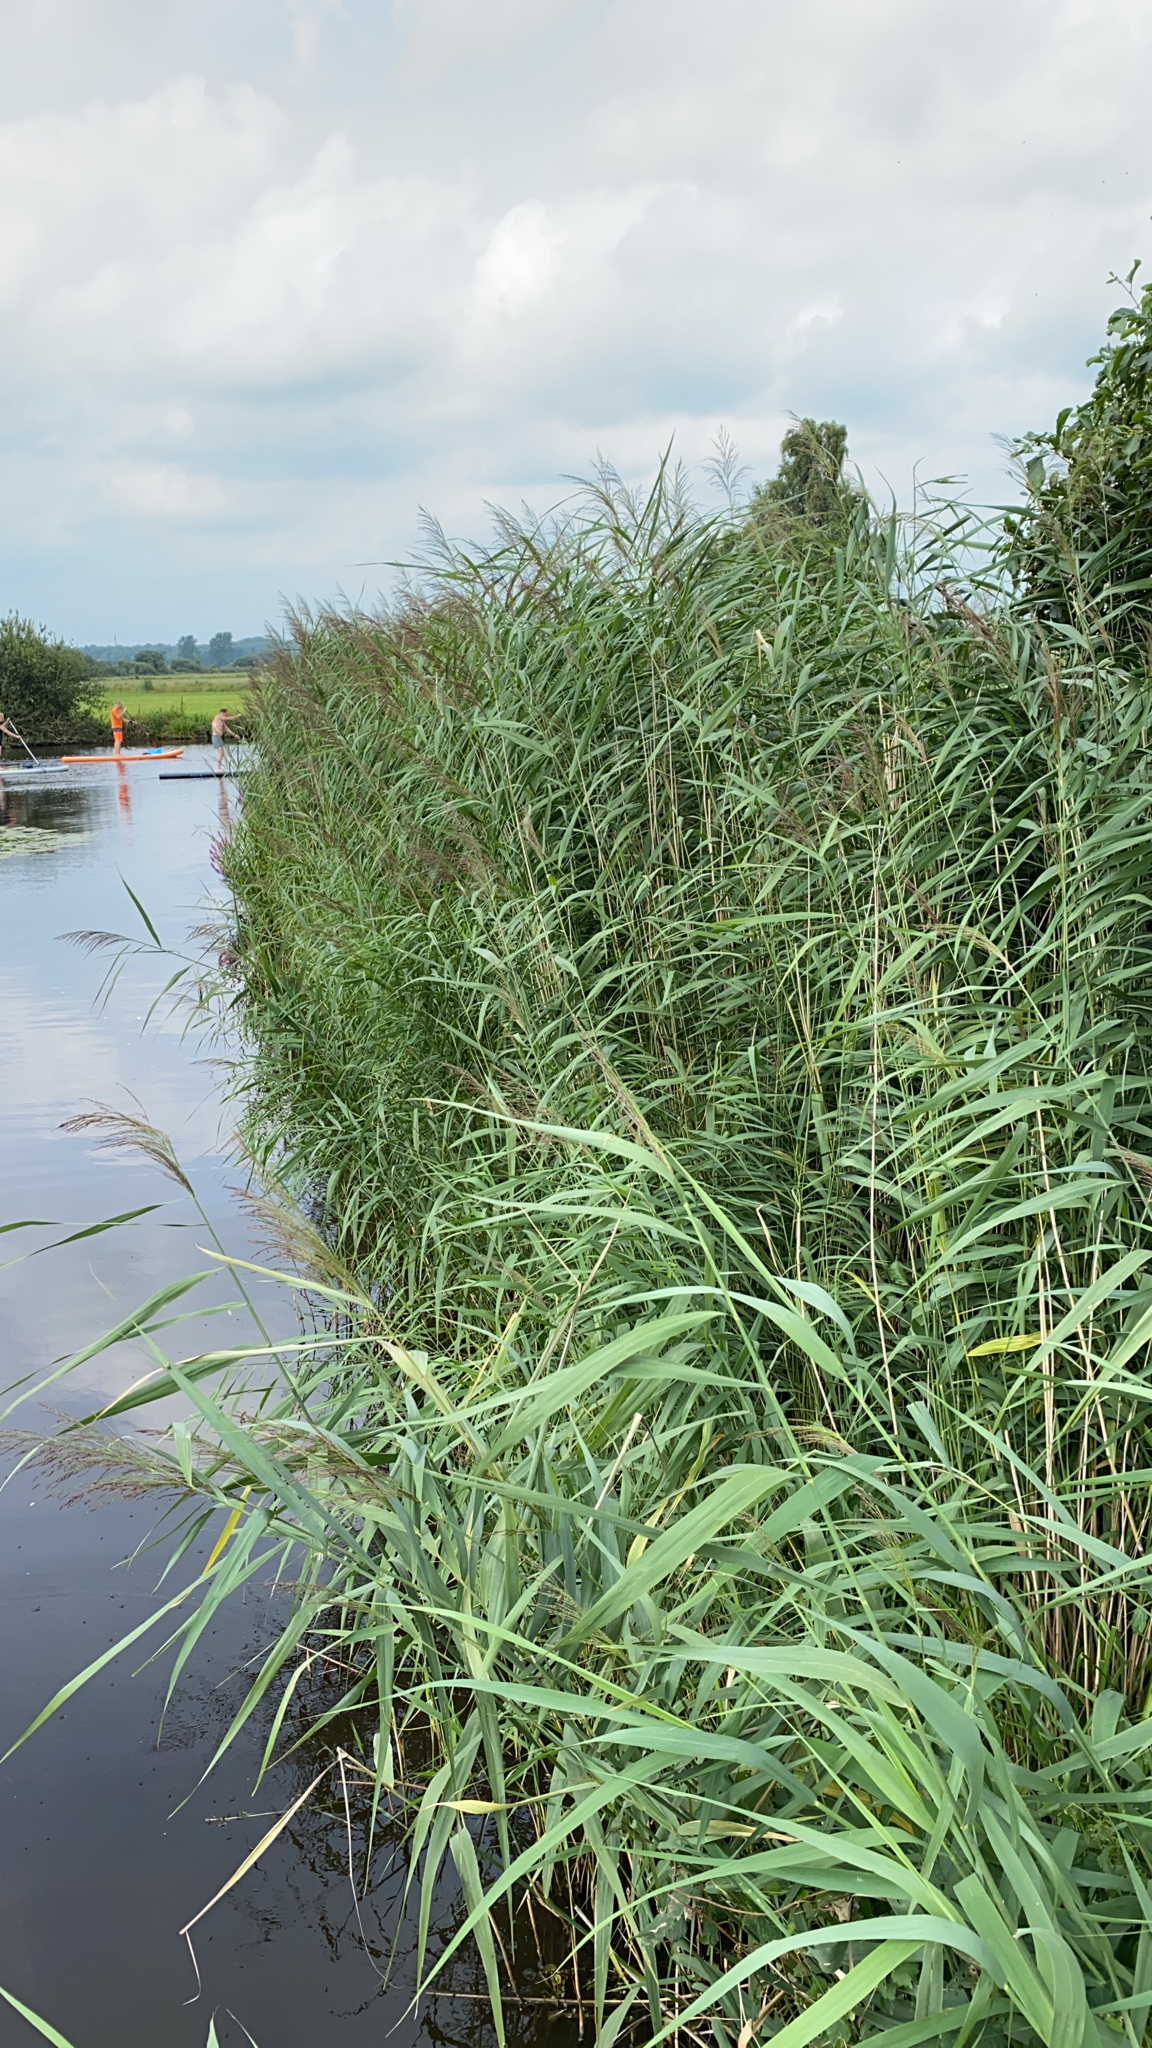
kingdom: Plantae
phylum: Tracheophyta
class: Liliopsida
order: Poales
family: Poaceae
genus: Phragmites
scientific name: Phragmites australis
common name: Common reed
